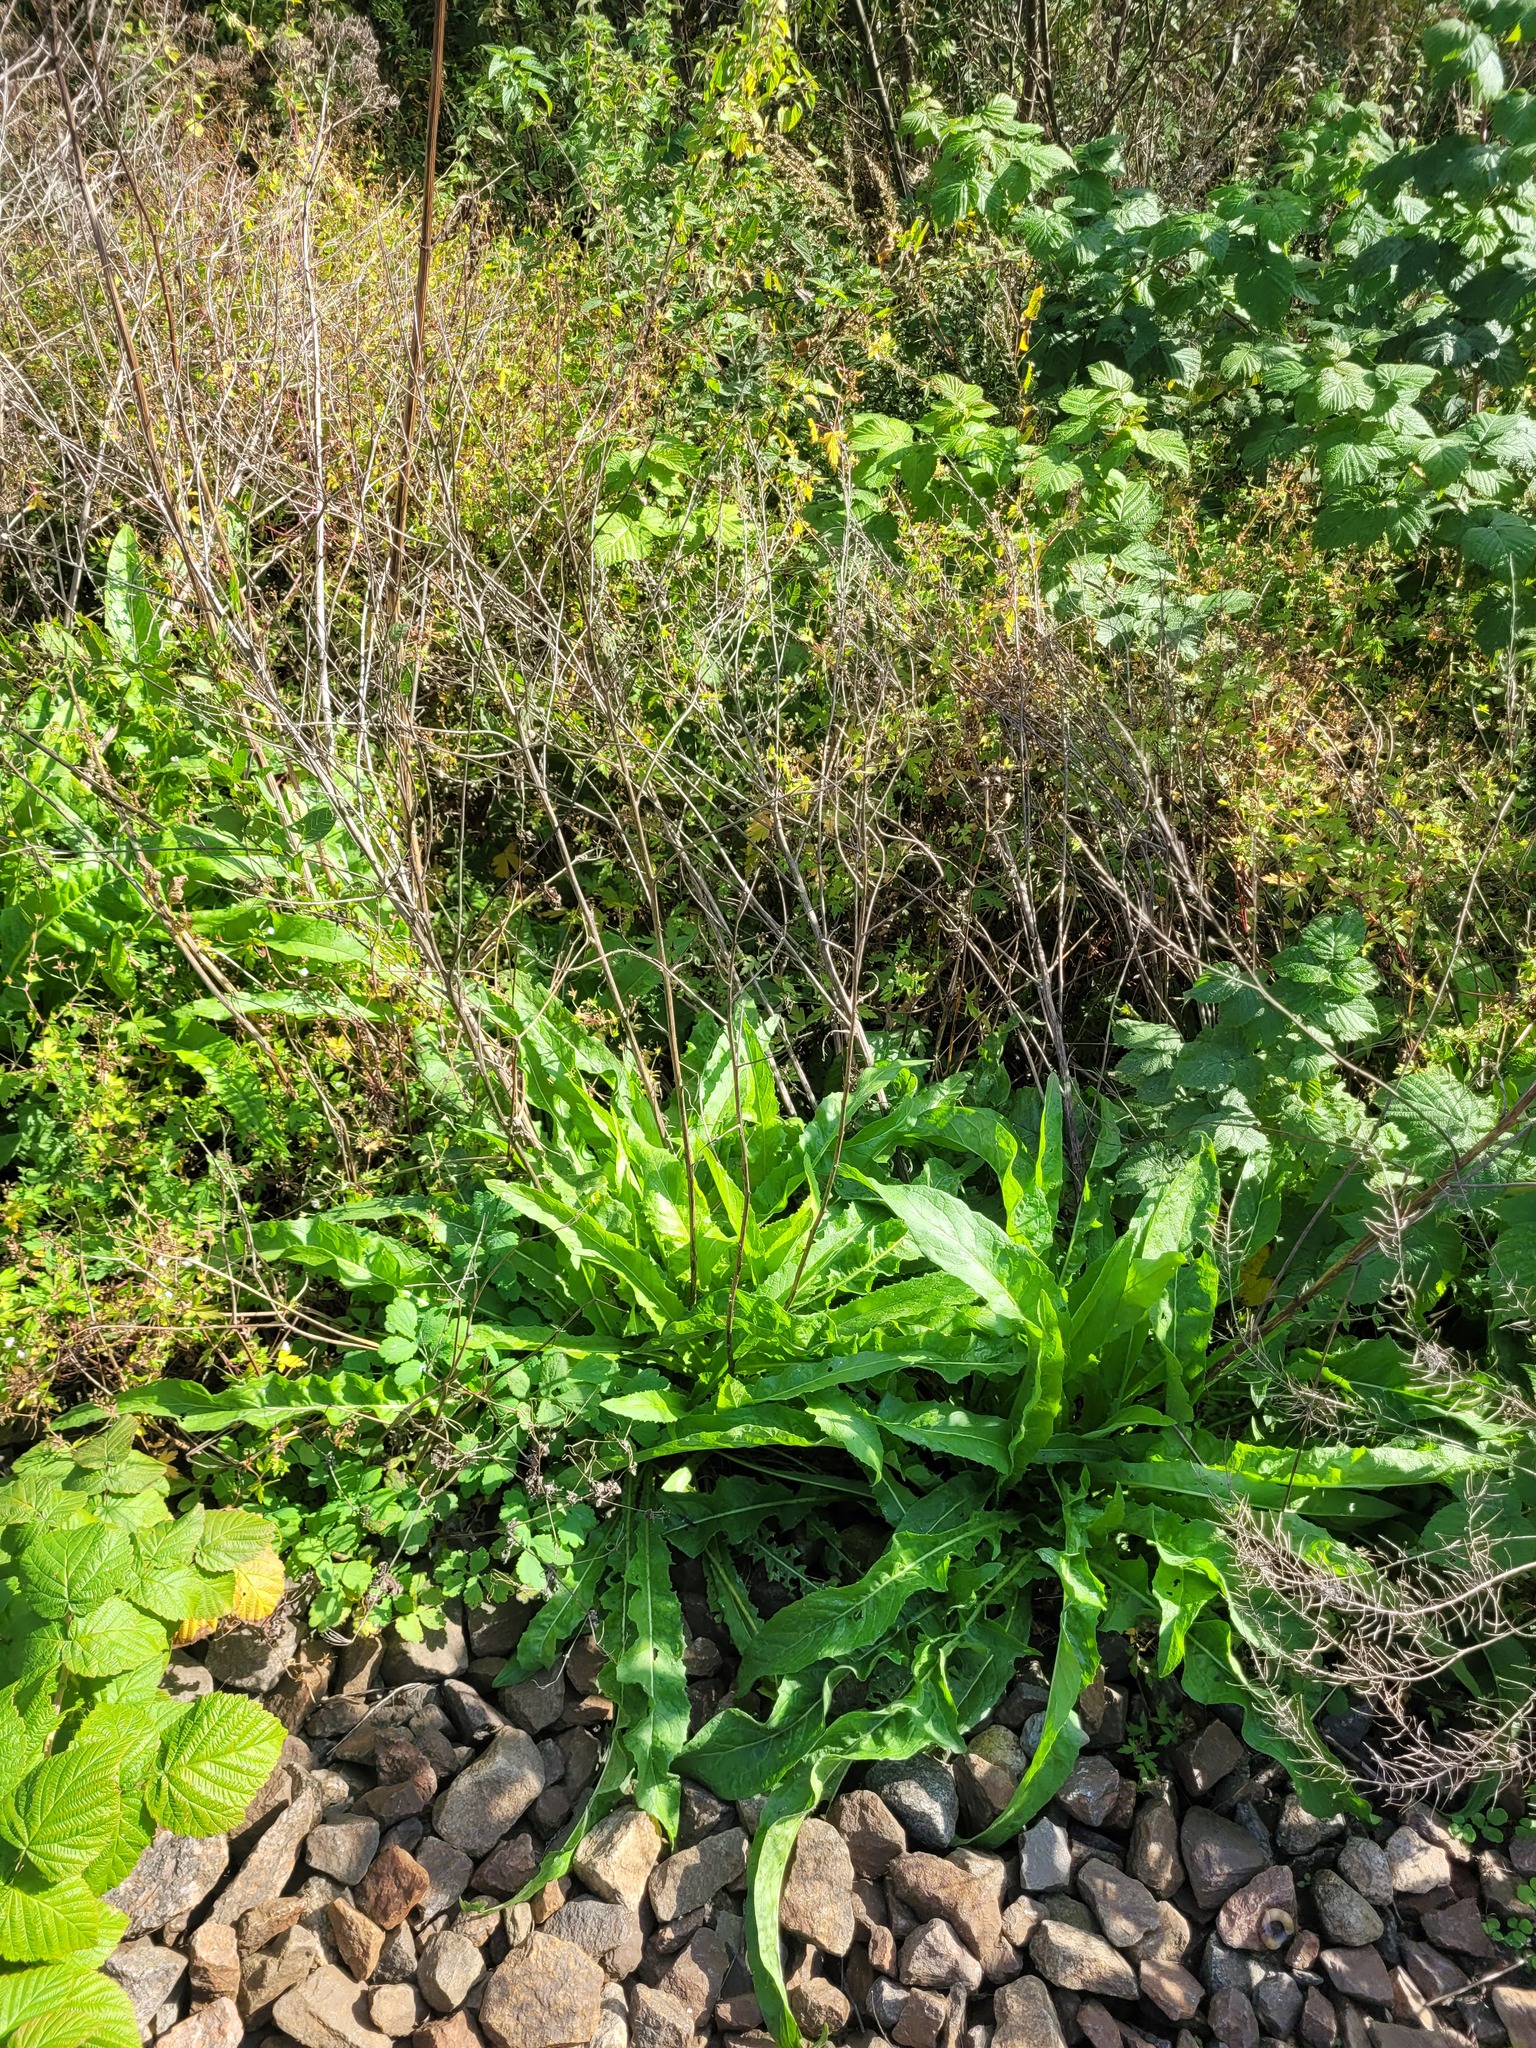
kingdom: Plantae
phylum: Tracheophyta
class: Magnoliopsida
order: Brassicales
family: Brassicaceae
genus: Bunias
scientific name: Bunias orientalis
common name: Warty-cabbage
